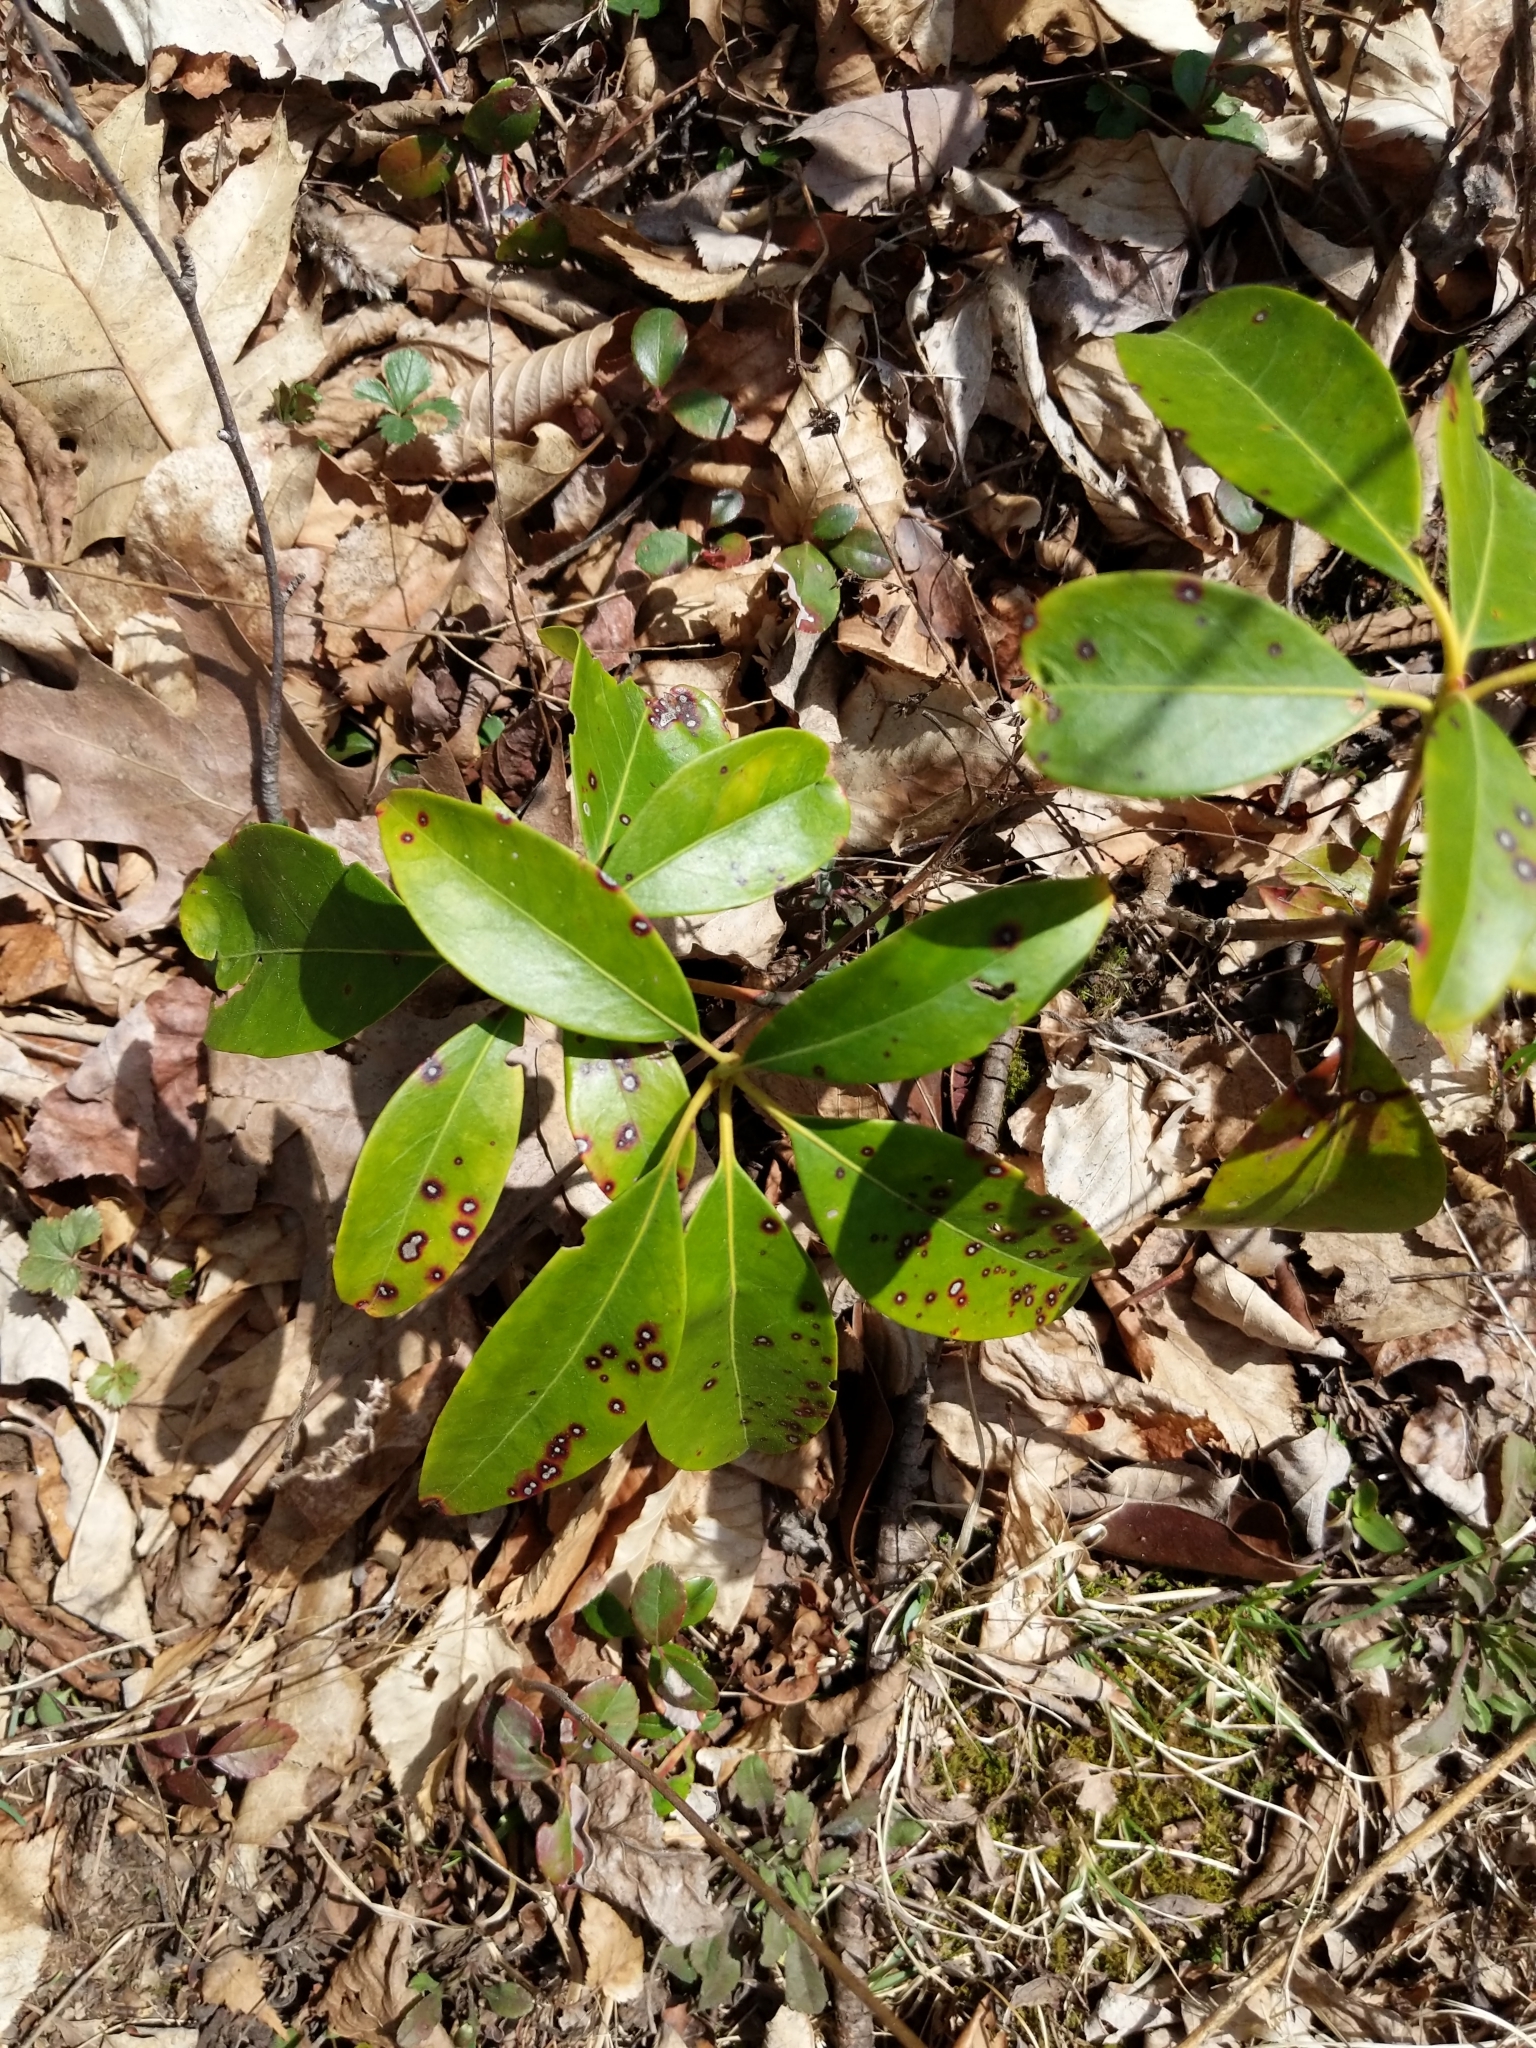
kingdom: Plantae
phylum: Tracheophyta
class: Magnoliopsida
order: Ericales
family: Ericaceae
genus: Kalmia
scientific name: Kalmia latifolia
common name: Mountain-laurel
